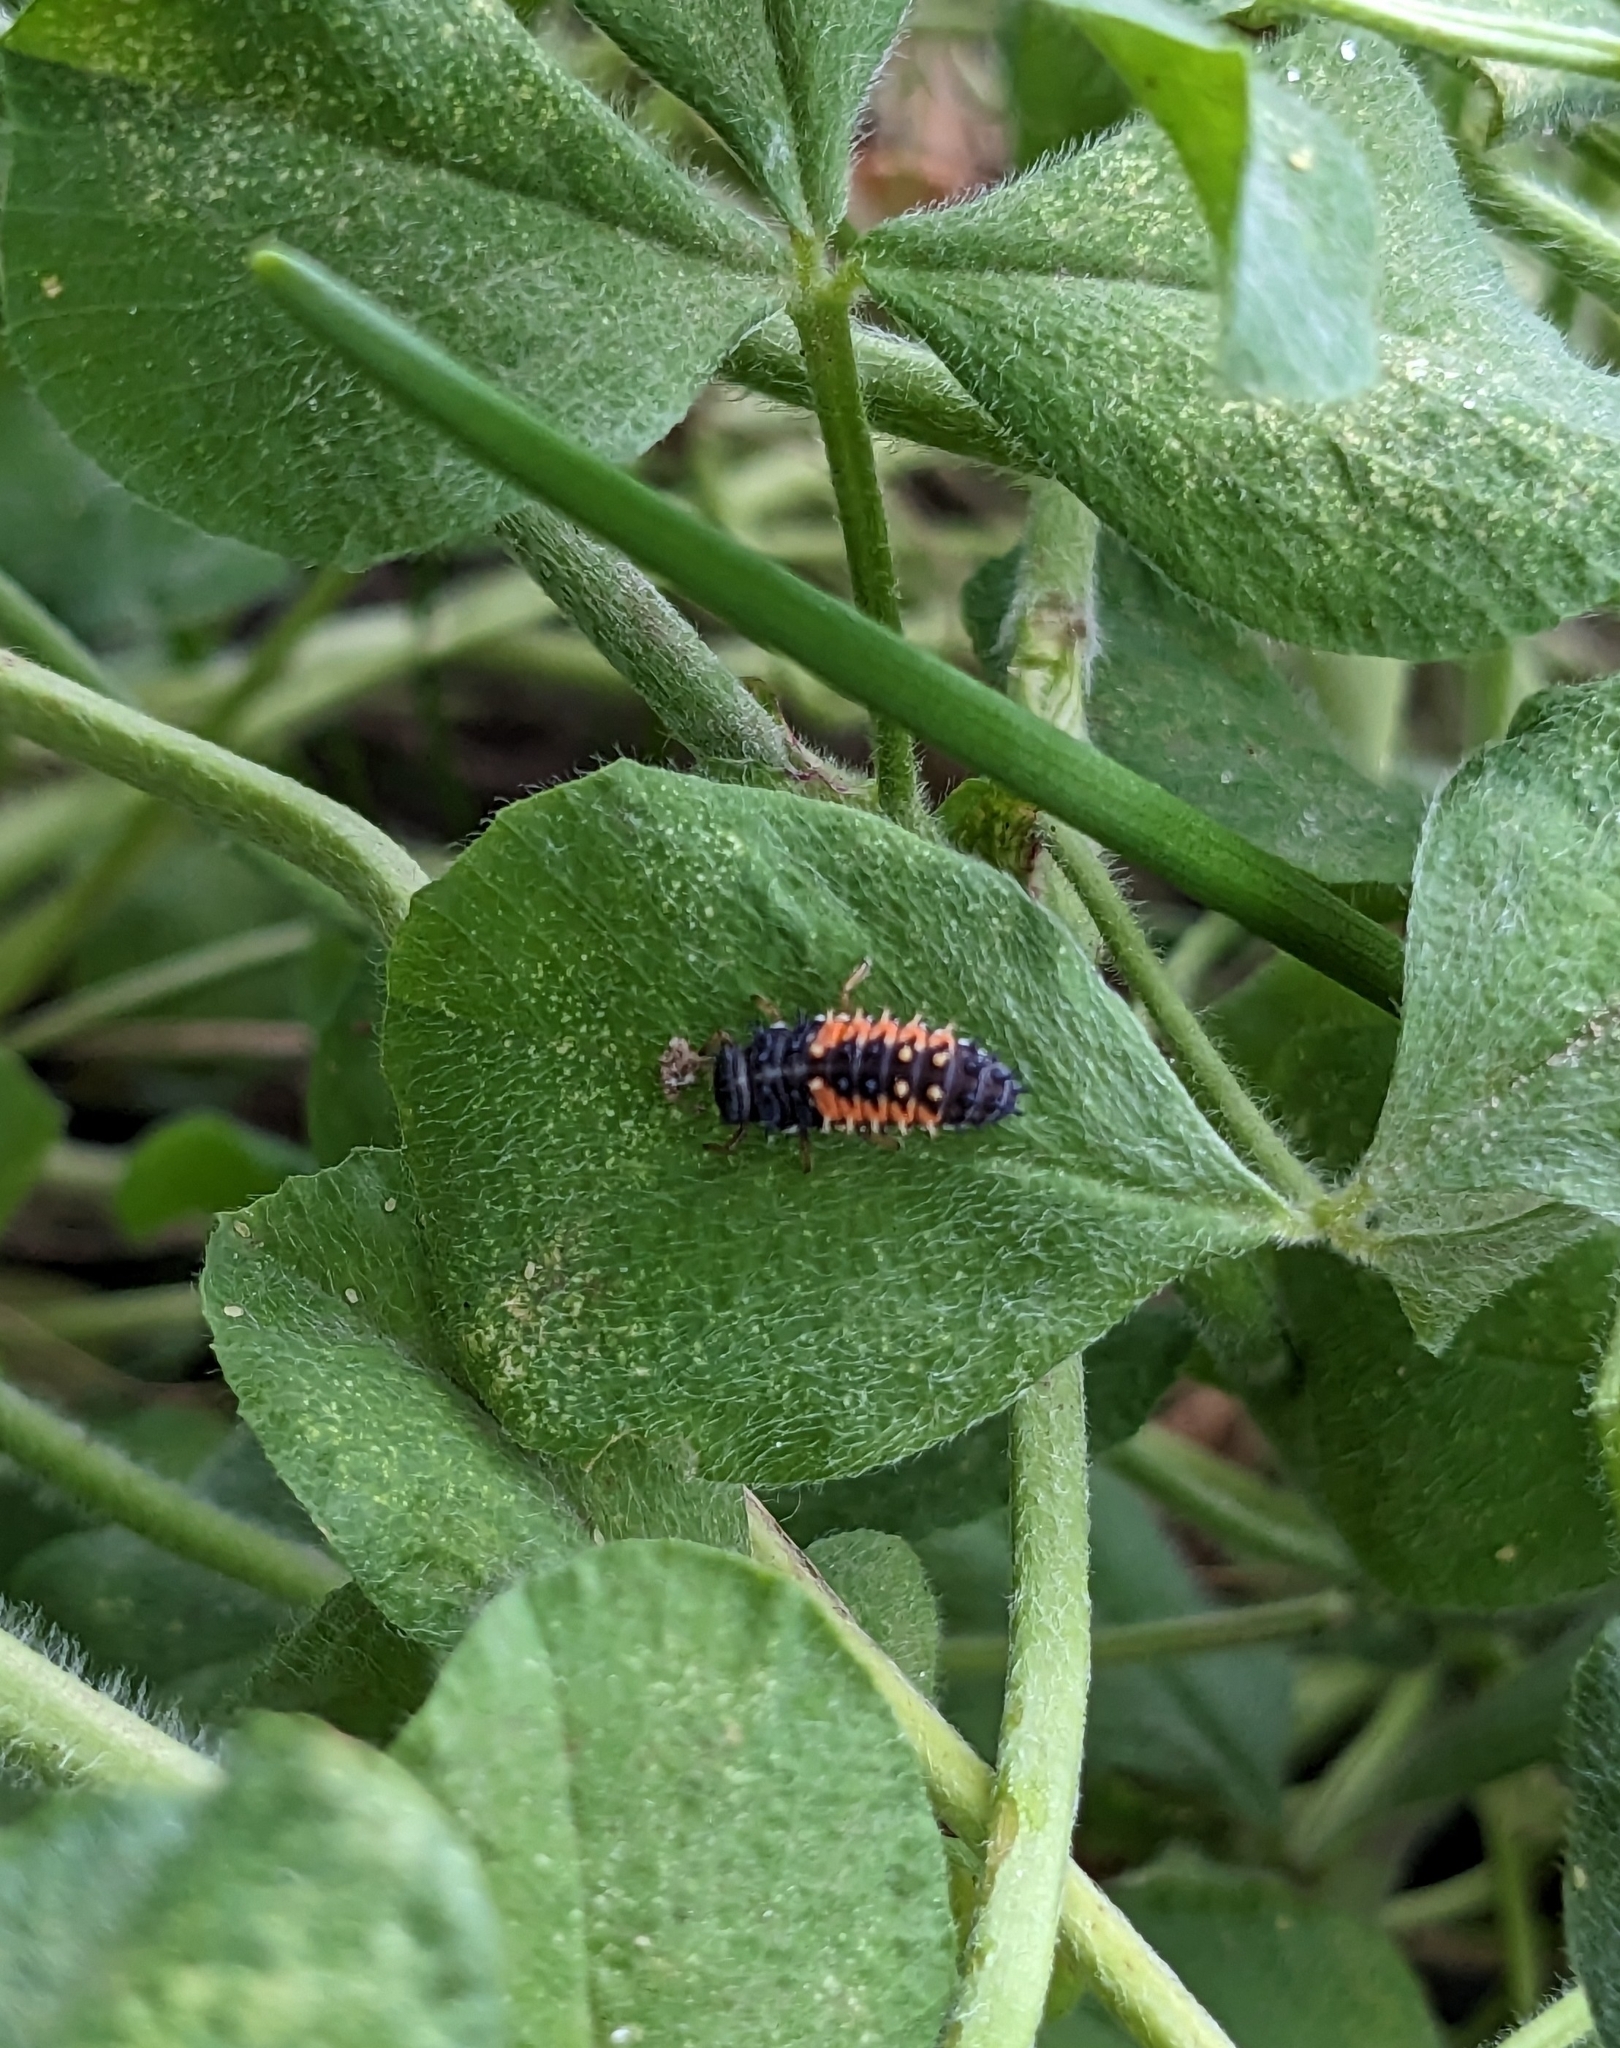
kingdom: Animalia
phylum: Arthropoda
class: Insecta
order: Coleoptera
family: Coccinellidae
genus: Harmonia
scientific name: Harmonia axyridis
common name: Harlequin ladybird
